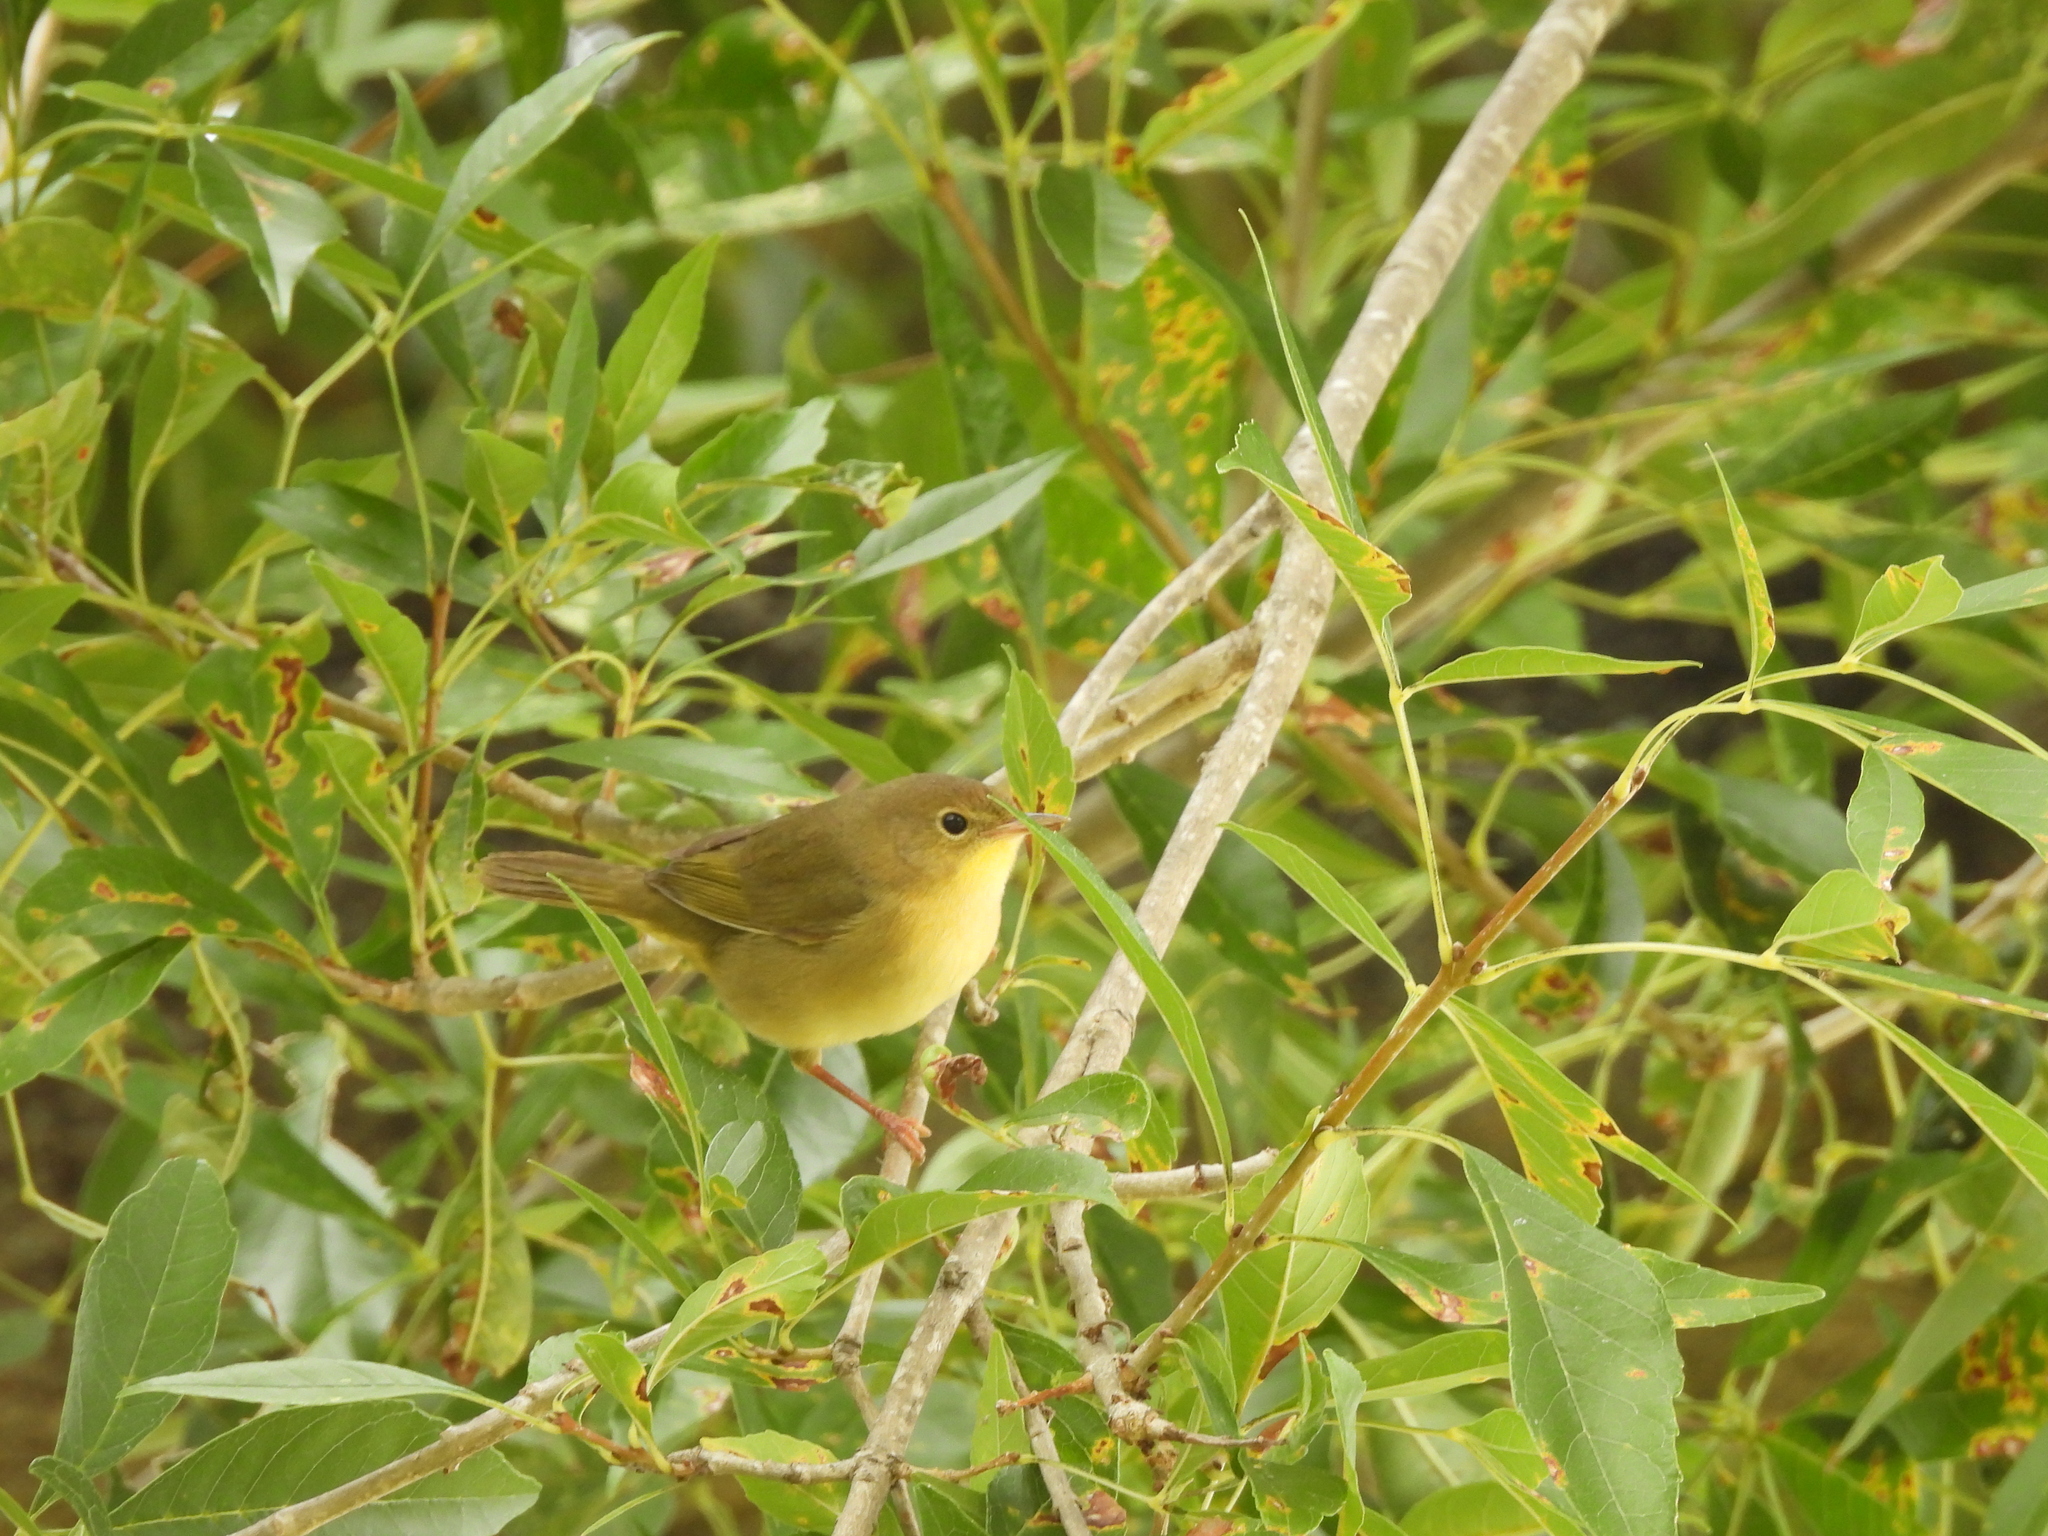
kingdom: Animalia
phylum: Chordata
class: Aves
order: Passeriformes
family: Parulidae
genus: Geothlypis
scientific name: Geothlypis trichas
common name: Common yellowthroat
